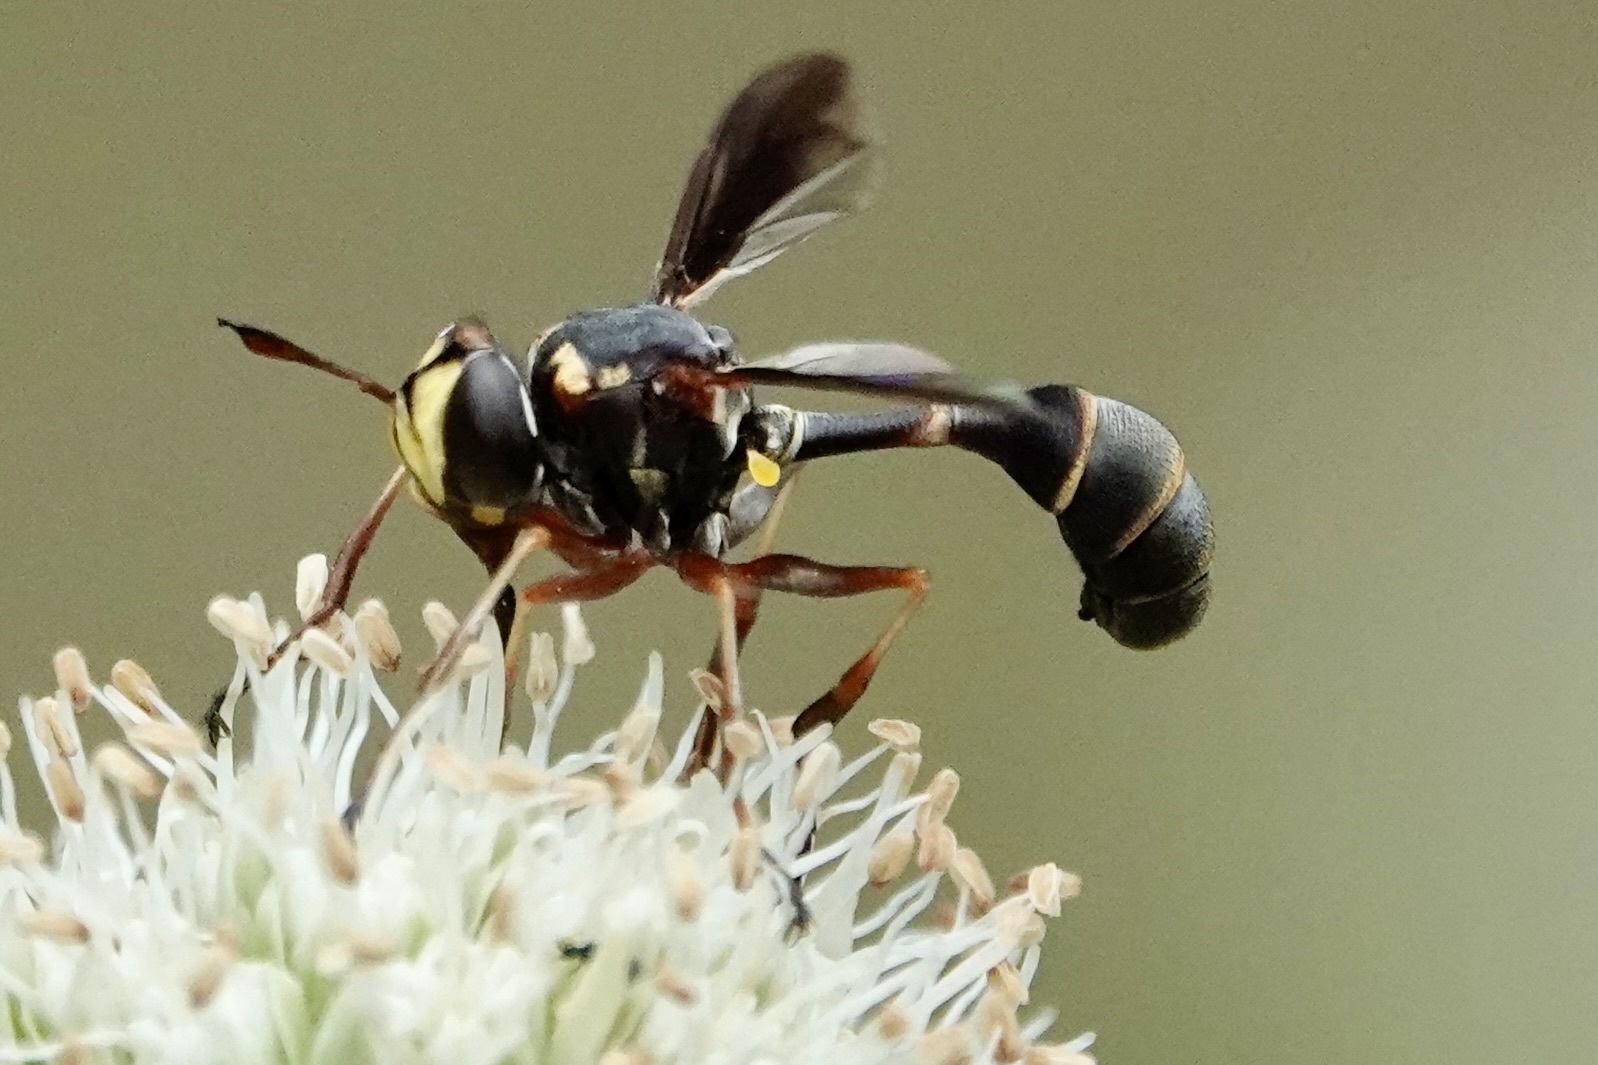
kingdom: Animalia
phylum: Arthropoda
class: Insecta
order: Diptera
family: Conopidae
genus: Physocephala
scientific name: Physocephala sagittaria
